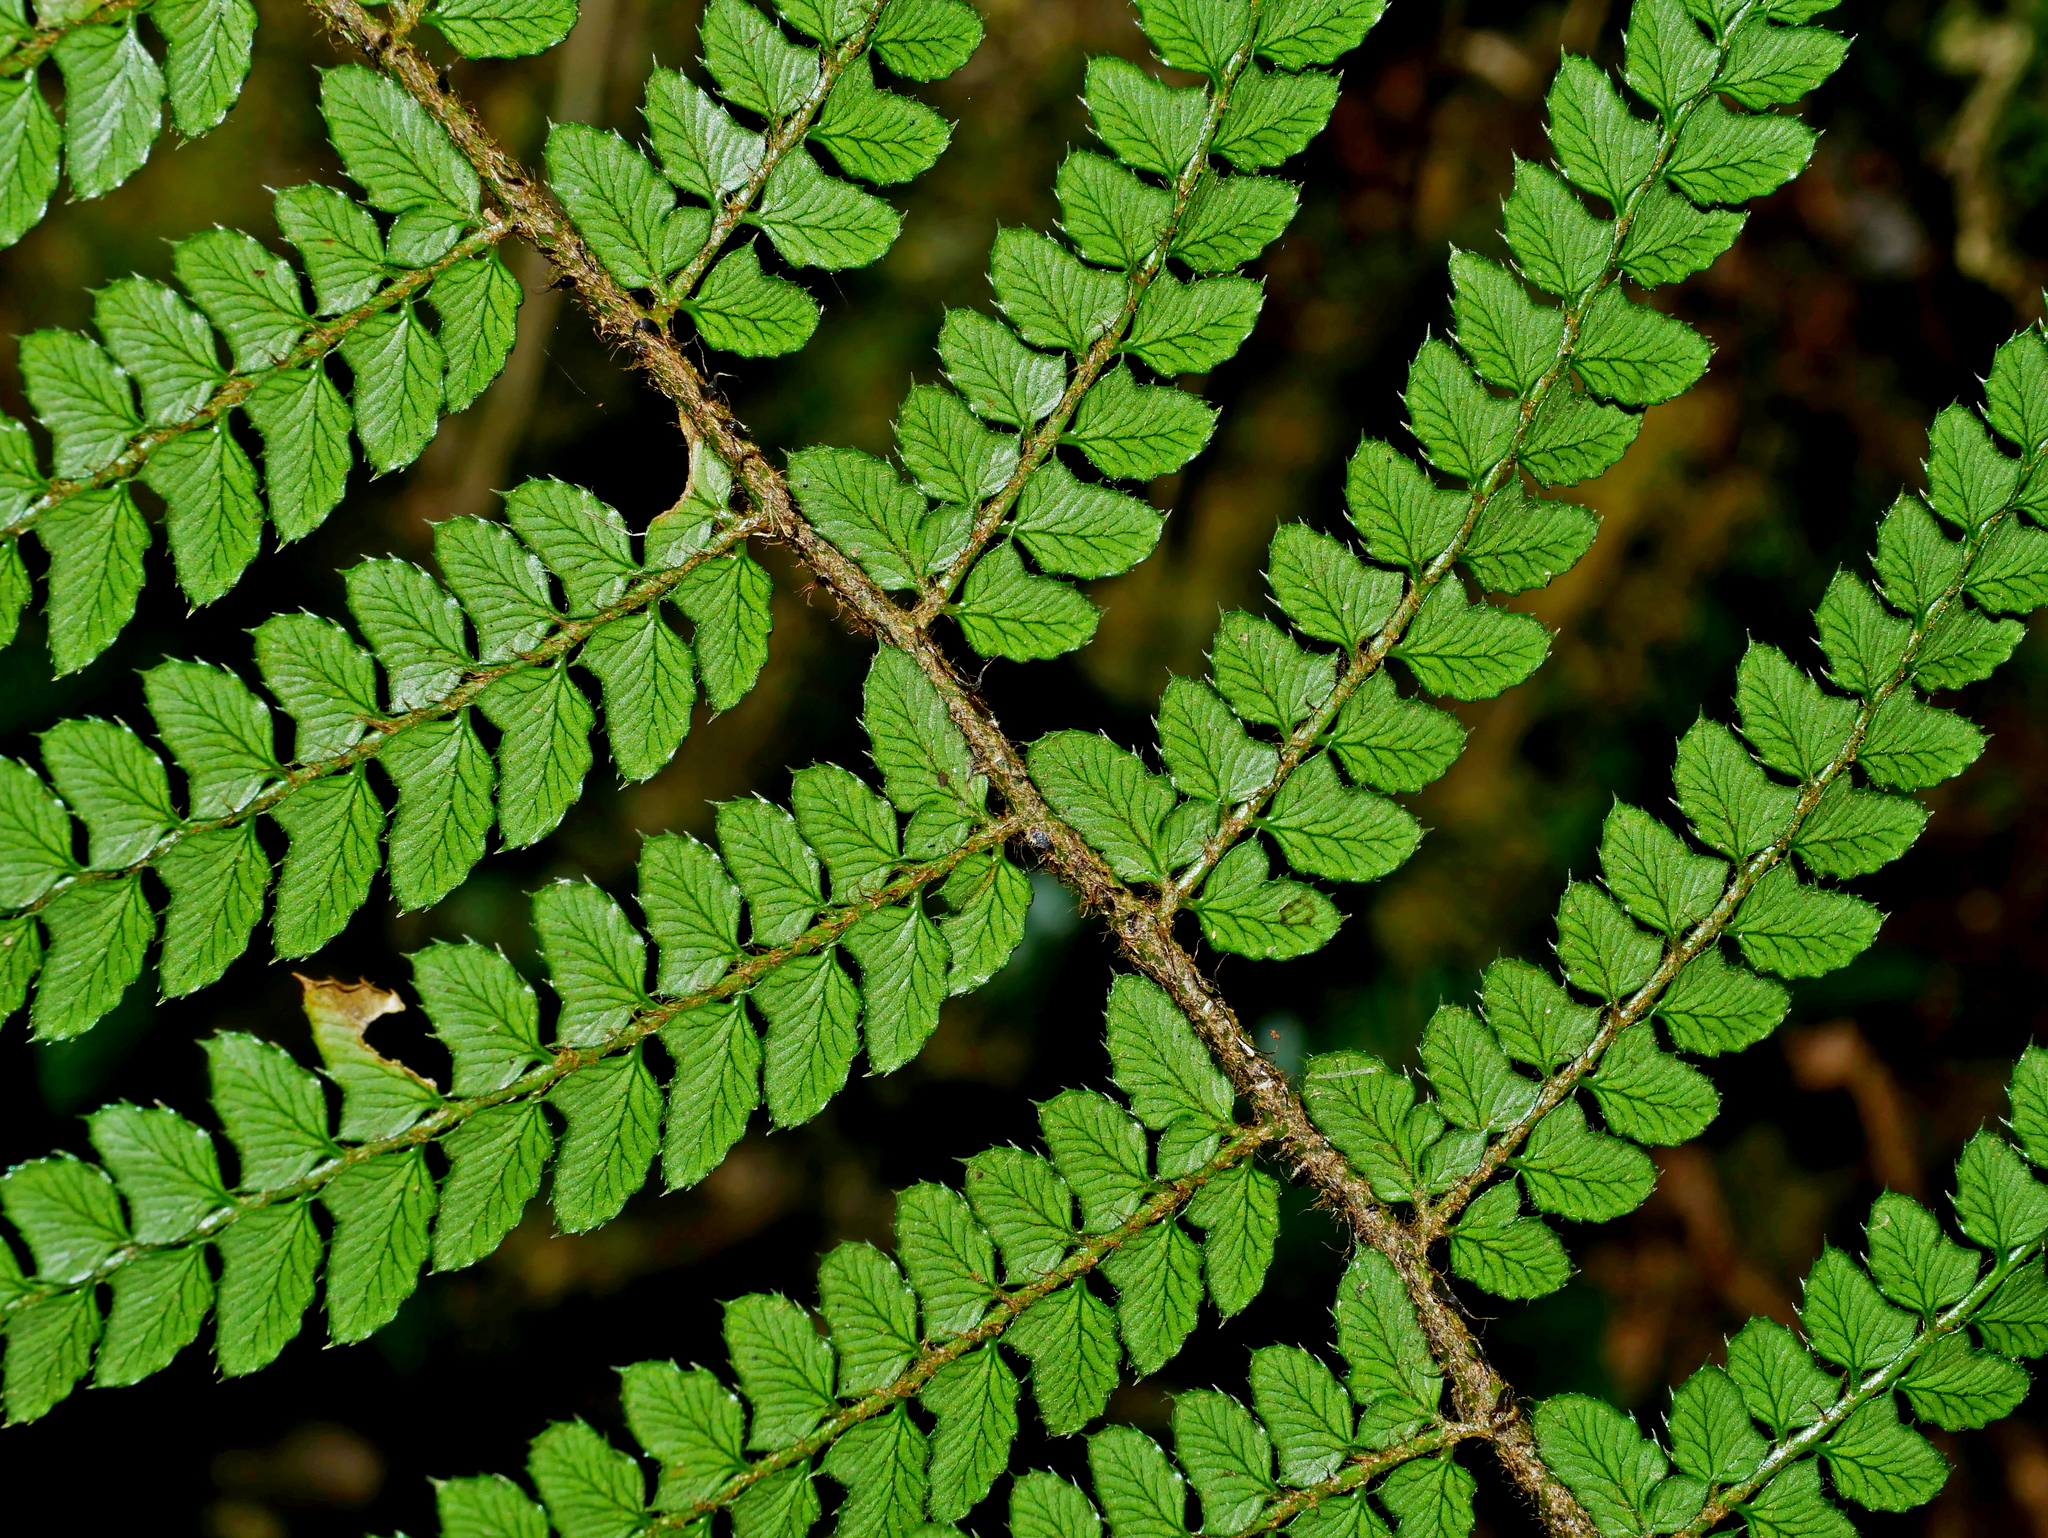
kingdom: Plantae
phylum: Tracheophyta
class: Polypodiopsida
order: Polypodiales
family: Dryopteridaceae
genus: Polystichum
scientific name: Polystichum piceopaleaceum
